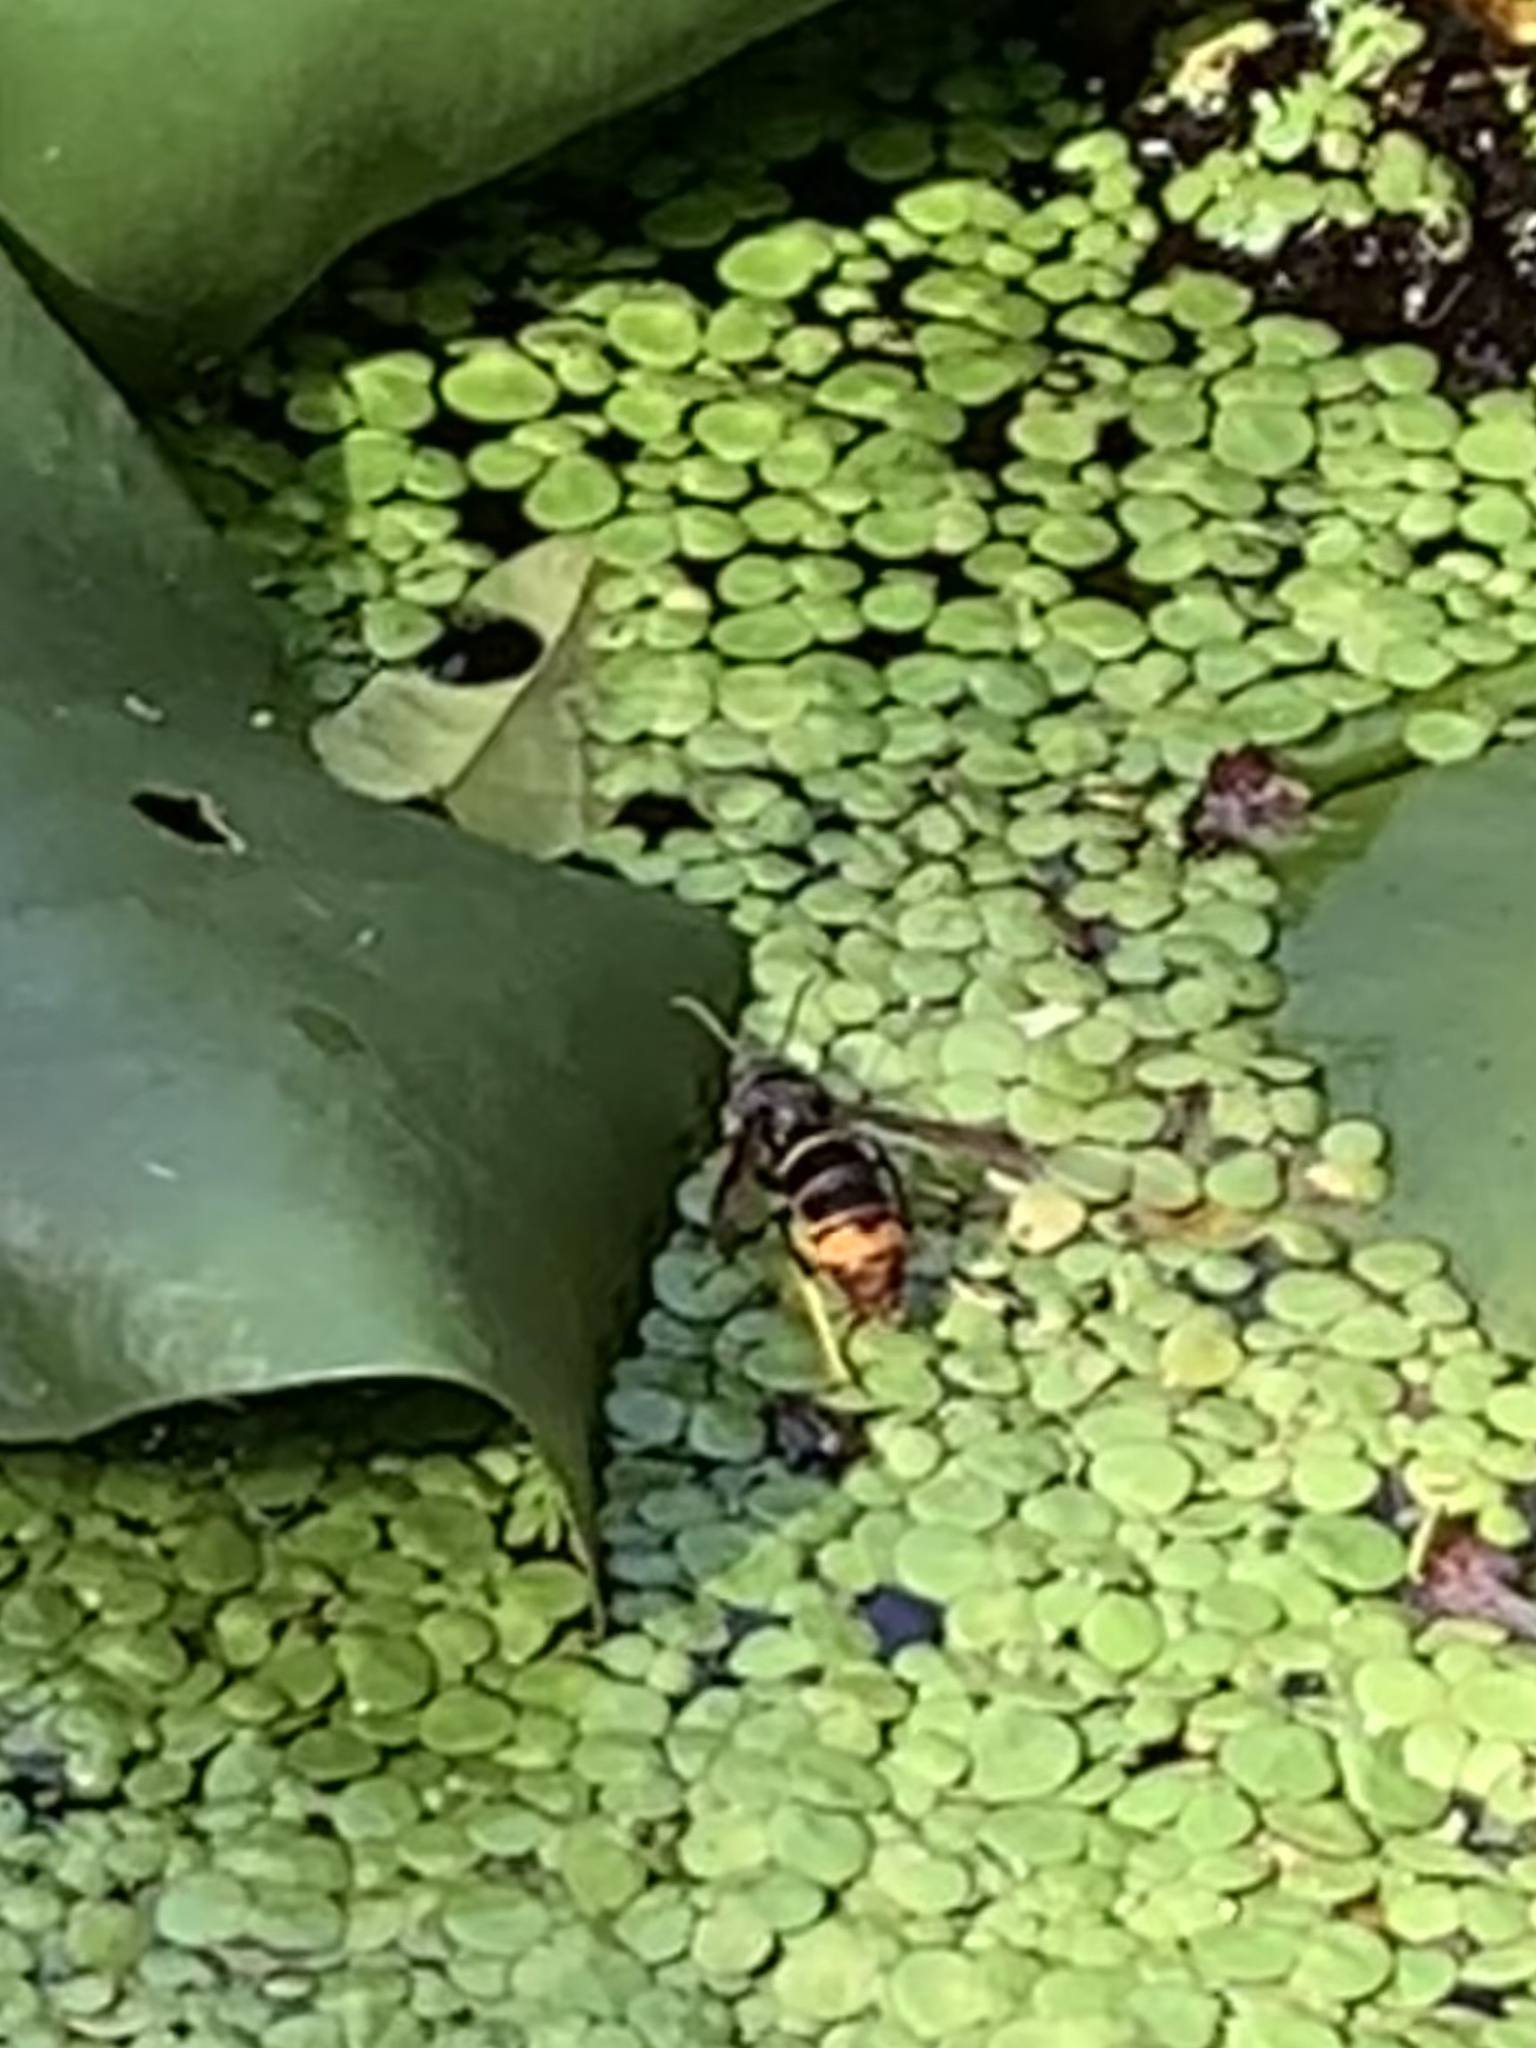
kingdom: Animalia
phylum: Arthropoda
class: Insecta
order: Hymenoptera
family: Vespidae
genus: Vespa
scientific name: Vespa velutina
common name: Asian hornet
